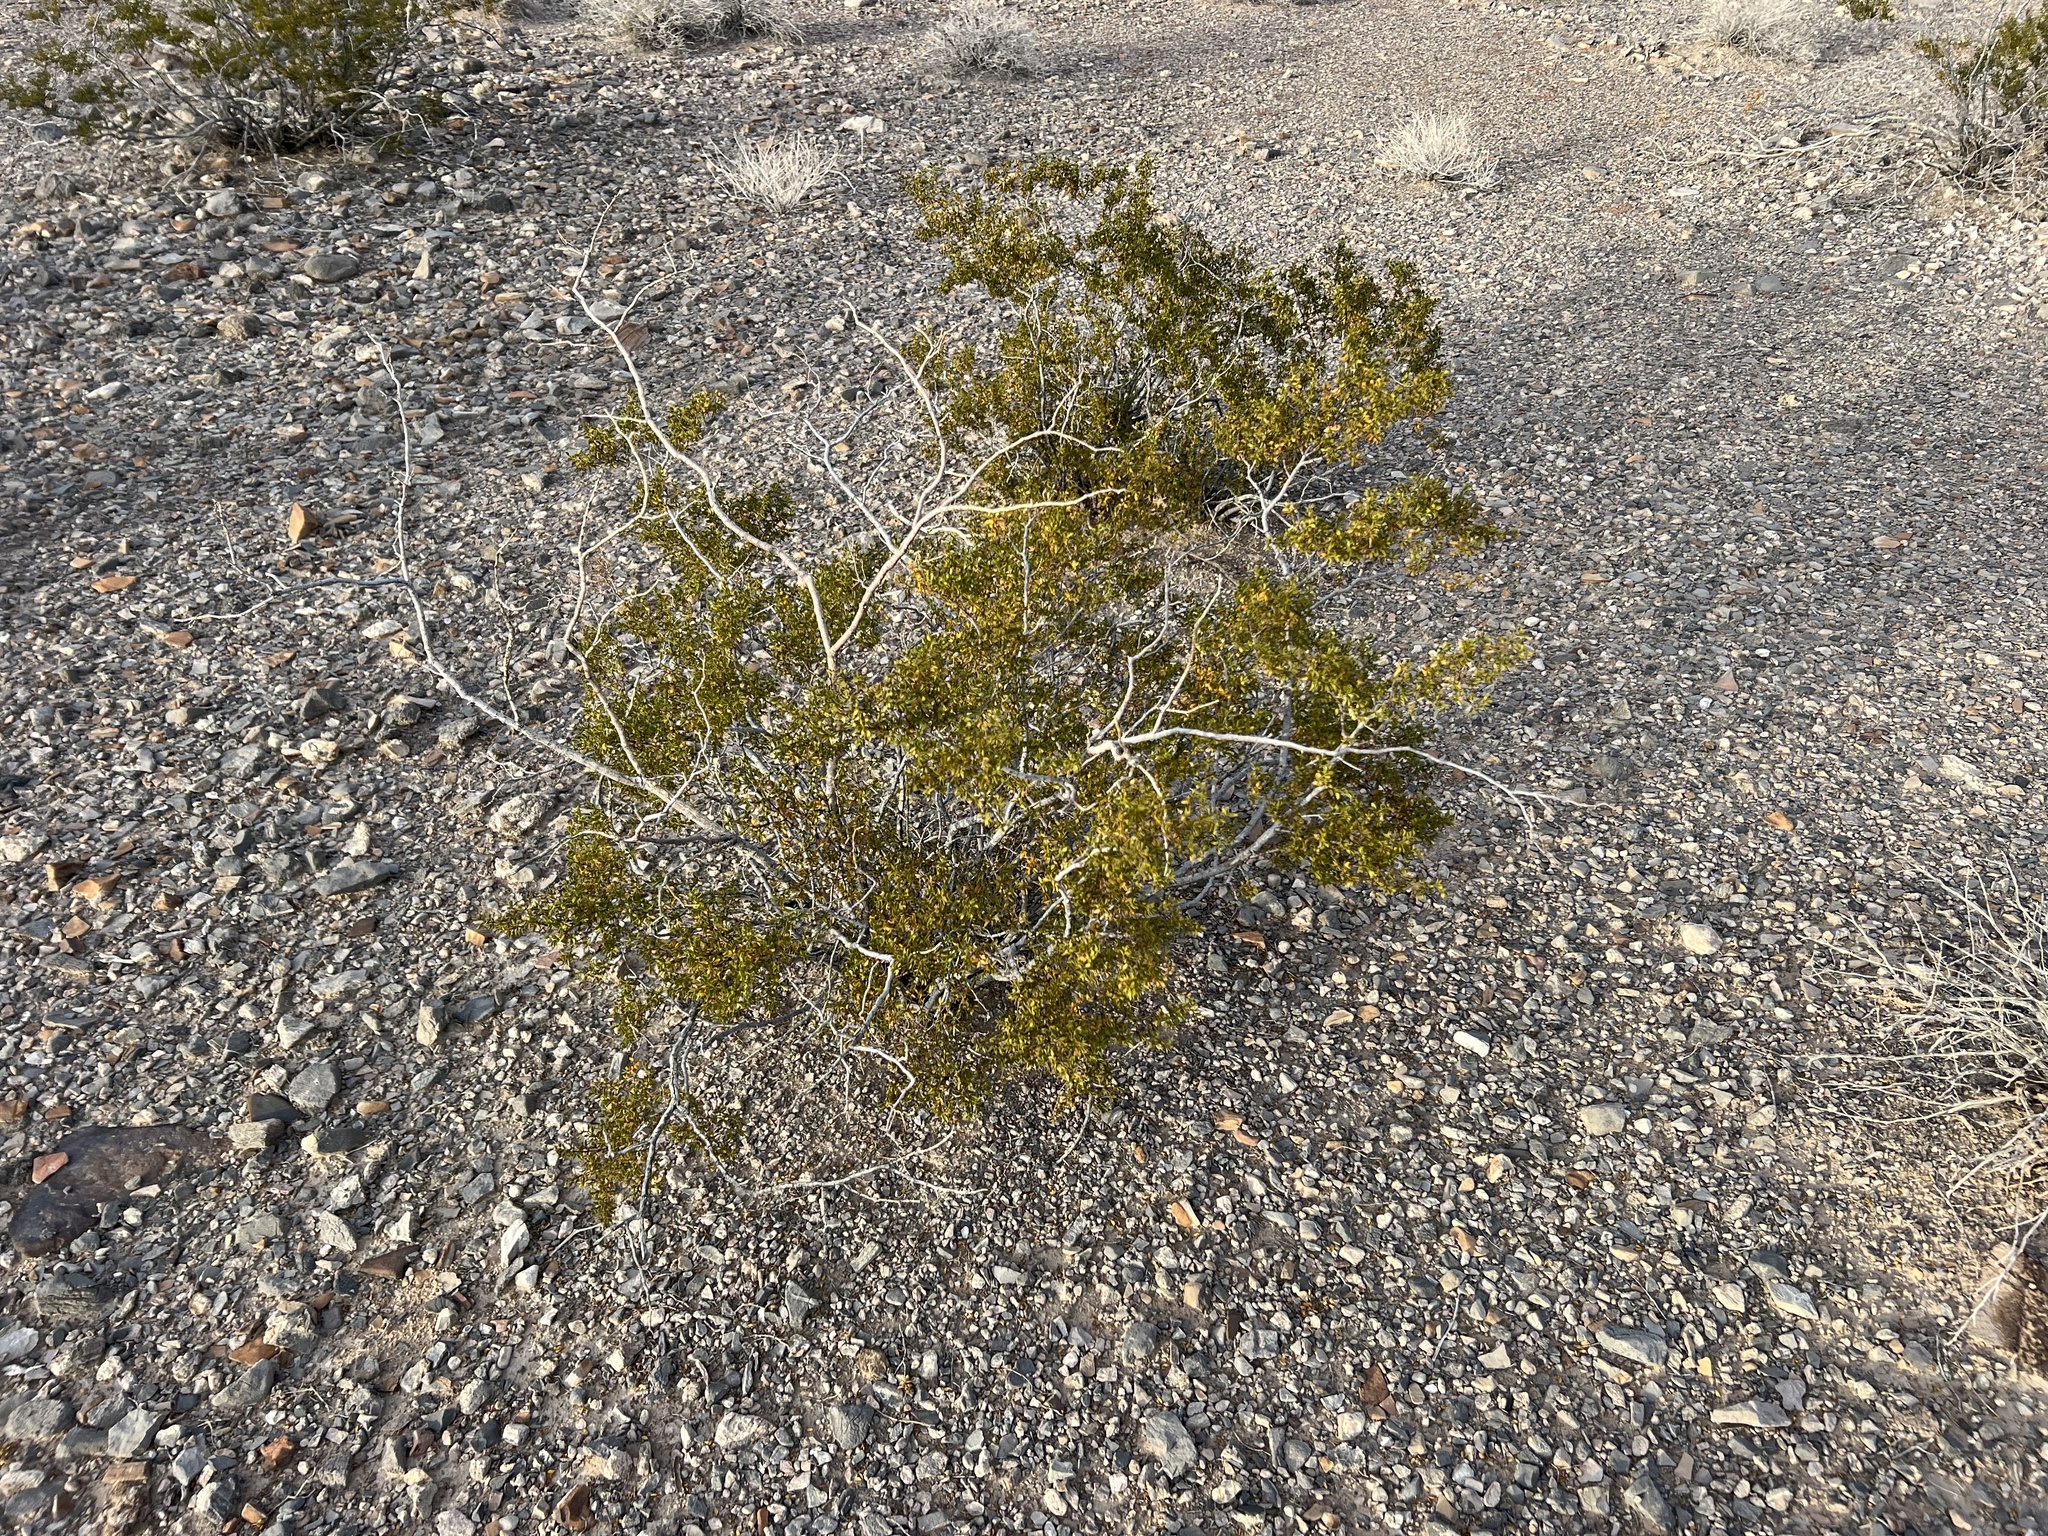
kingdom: Plantae
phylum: Tracheophyta
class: Magnoliopsida
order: Zygophyllales
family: Zygophyllaceae
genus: Larrea
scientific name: Larrea tridentata
